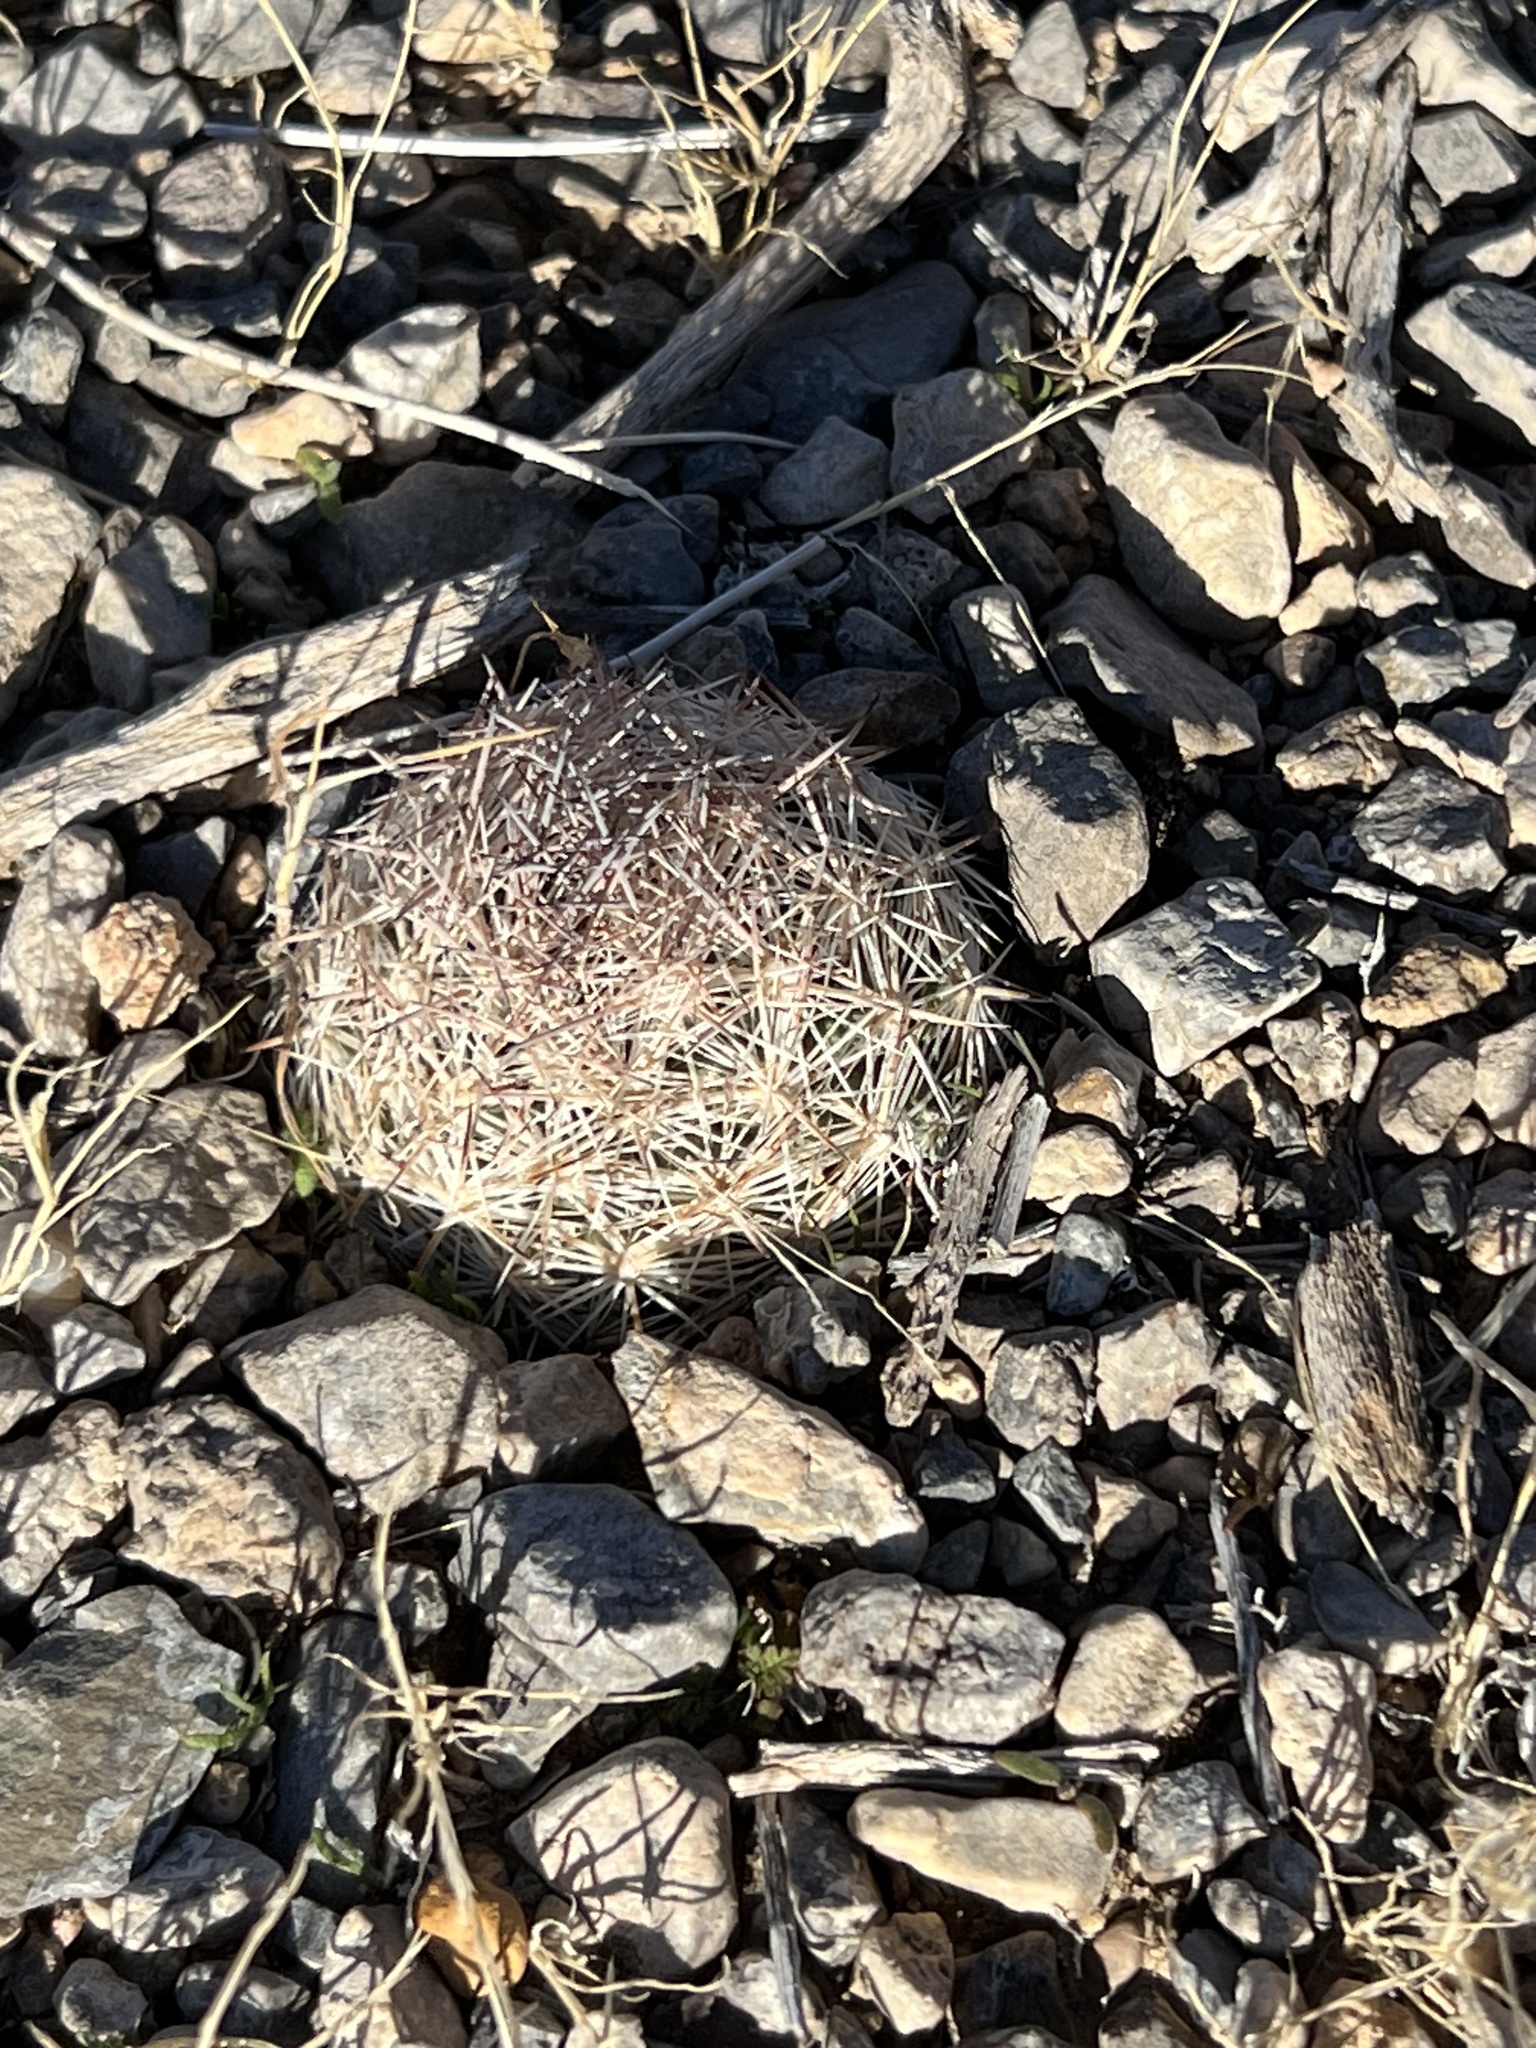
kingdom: Plantae
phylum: Tracheophyta
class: Magnoliopsida
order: Caryophyllales
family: Cactaceae
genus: Pelecyphora
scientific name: Pelecyphora dasyacantha
